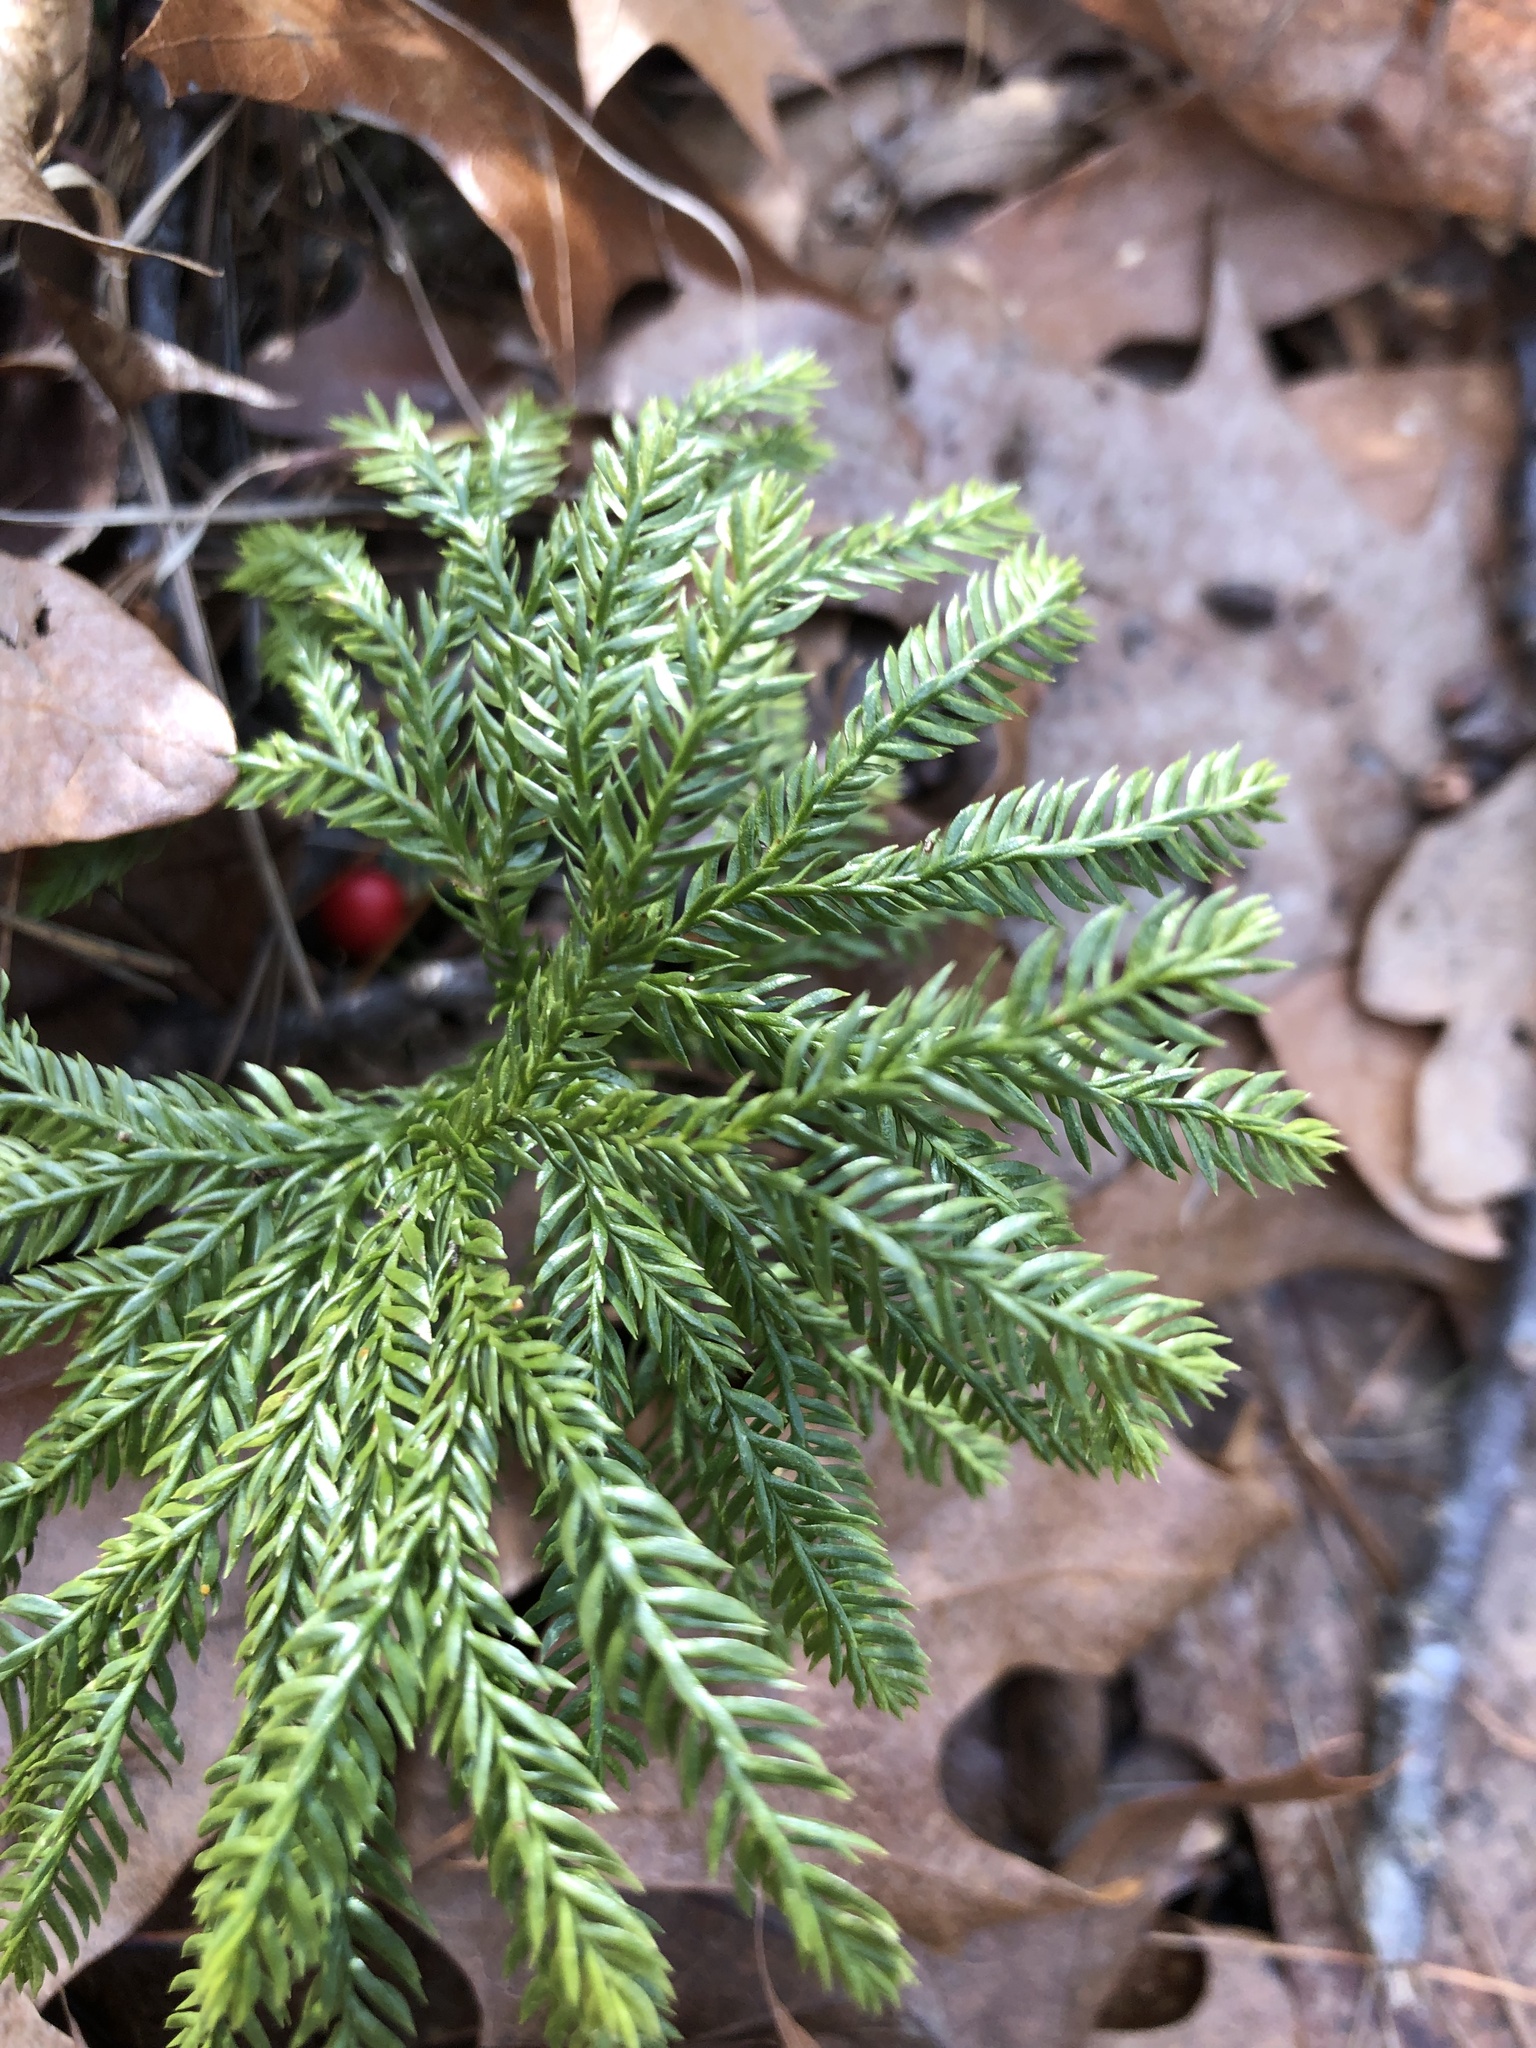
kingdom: Plantae
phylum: Tracheophyta
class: Lycopodiopsida
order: Lycopodiales
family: Lycopodiaceae
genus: Dendrolycopodium
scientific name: Dendrolycopodium obscurum
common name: Common ground-pine
